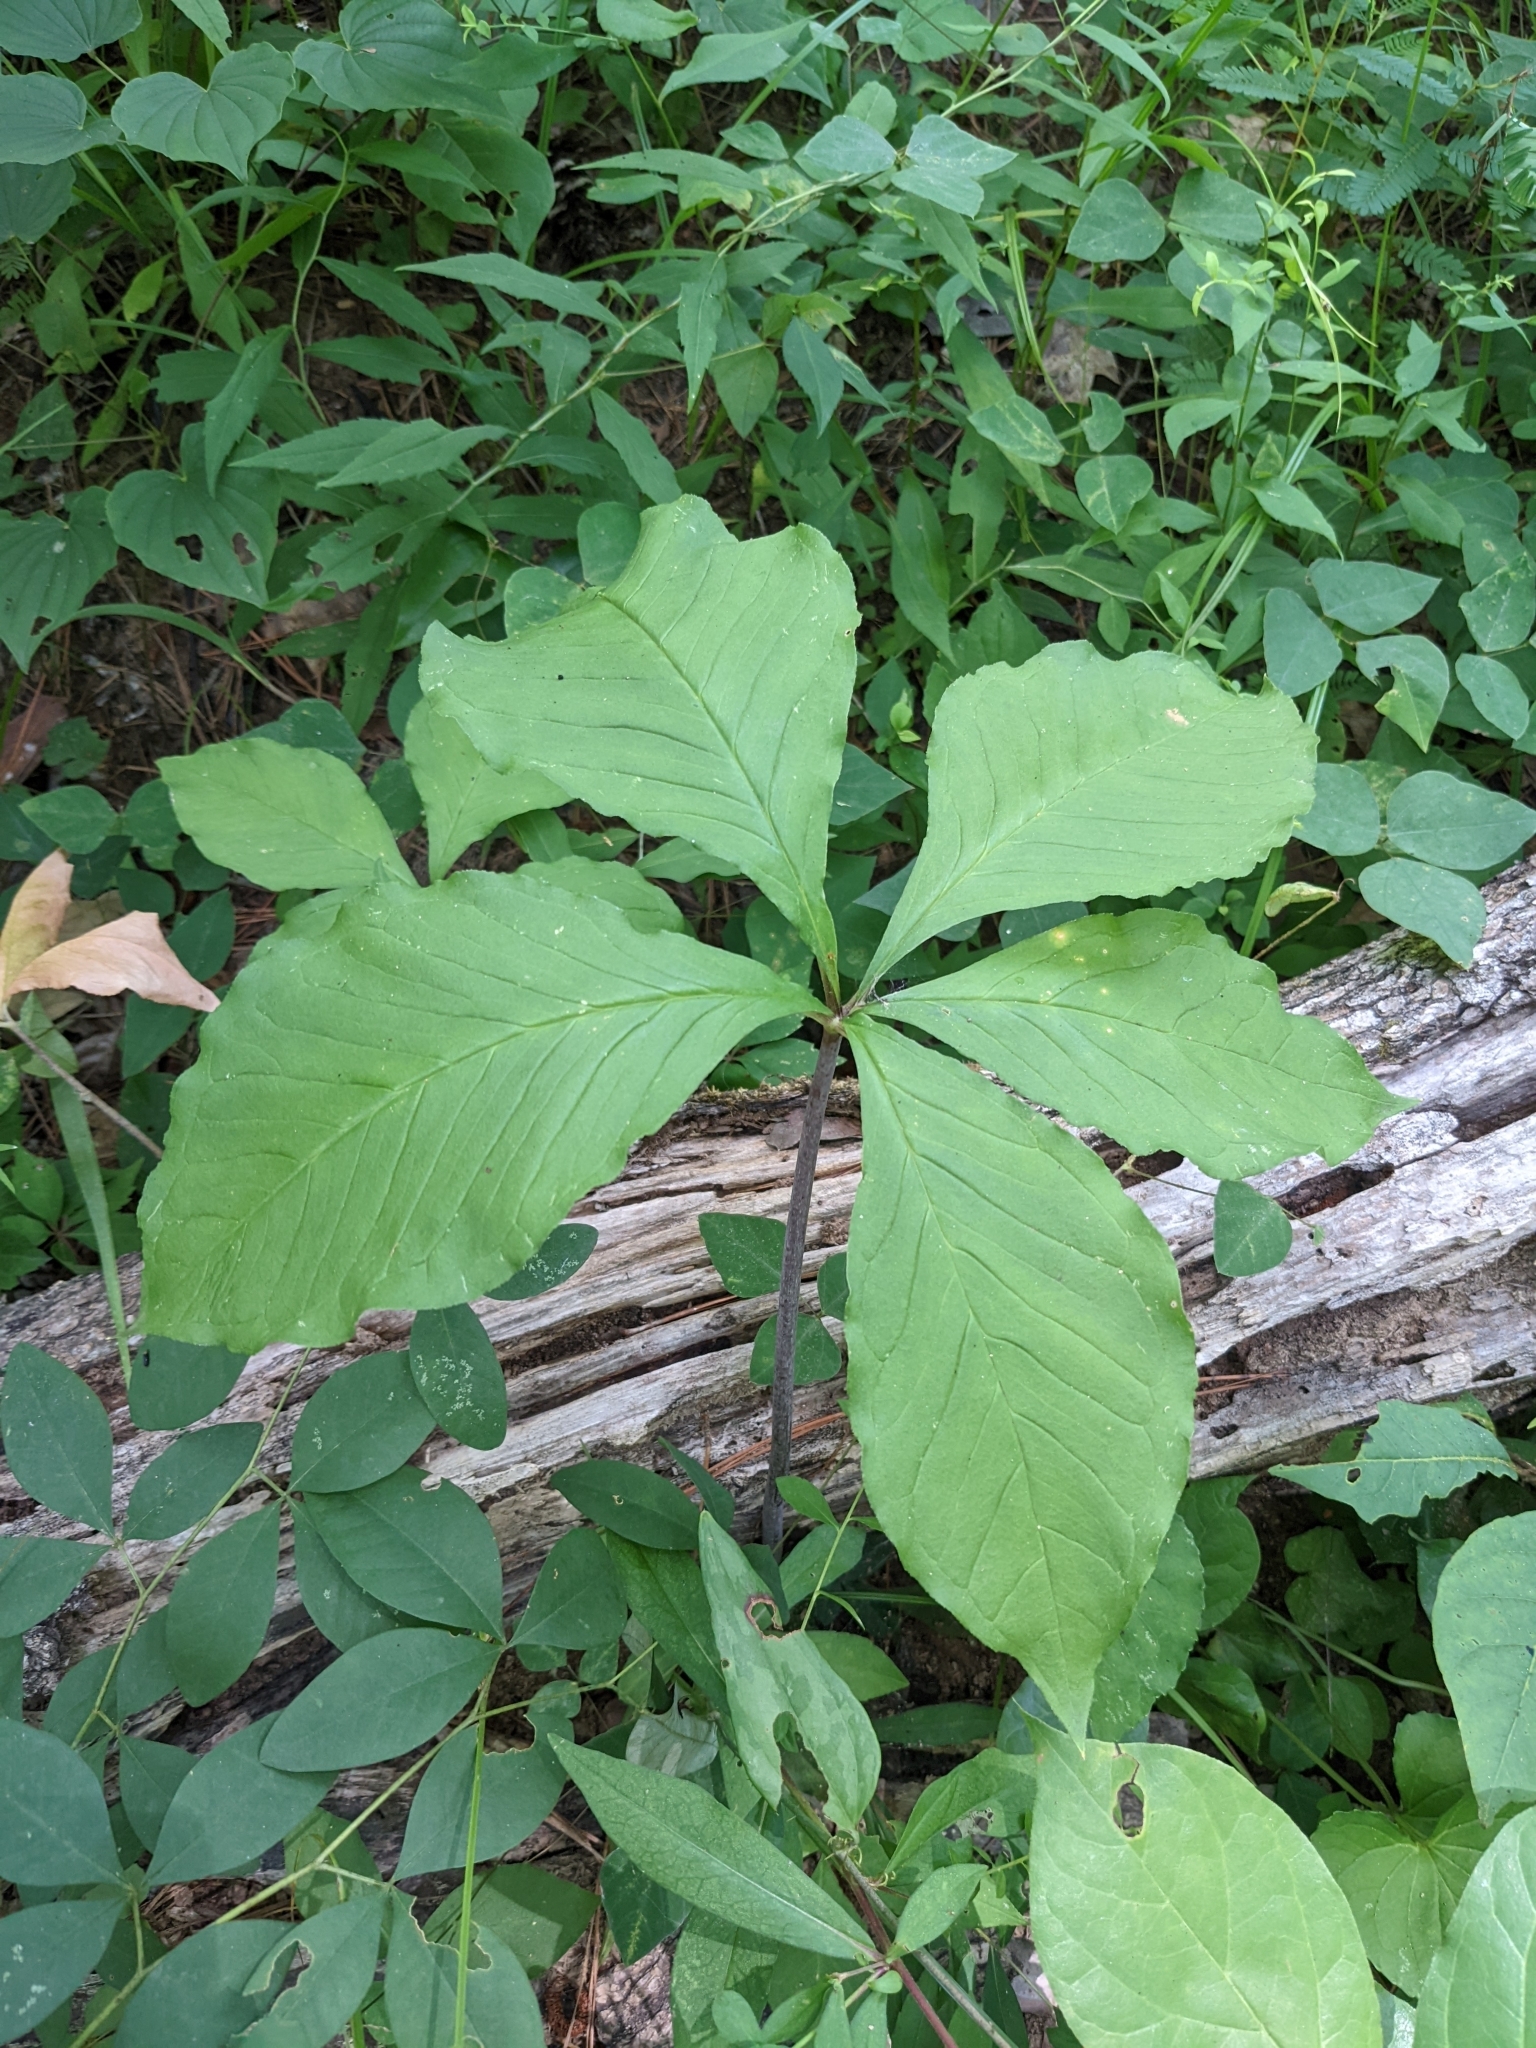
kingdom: Plantae
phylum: Tracheophyta
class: Liliopsida
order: Alismatales
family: Araceae
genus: Arisaema
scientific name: Arisaema quinatum
